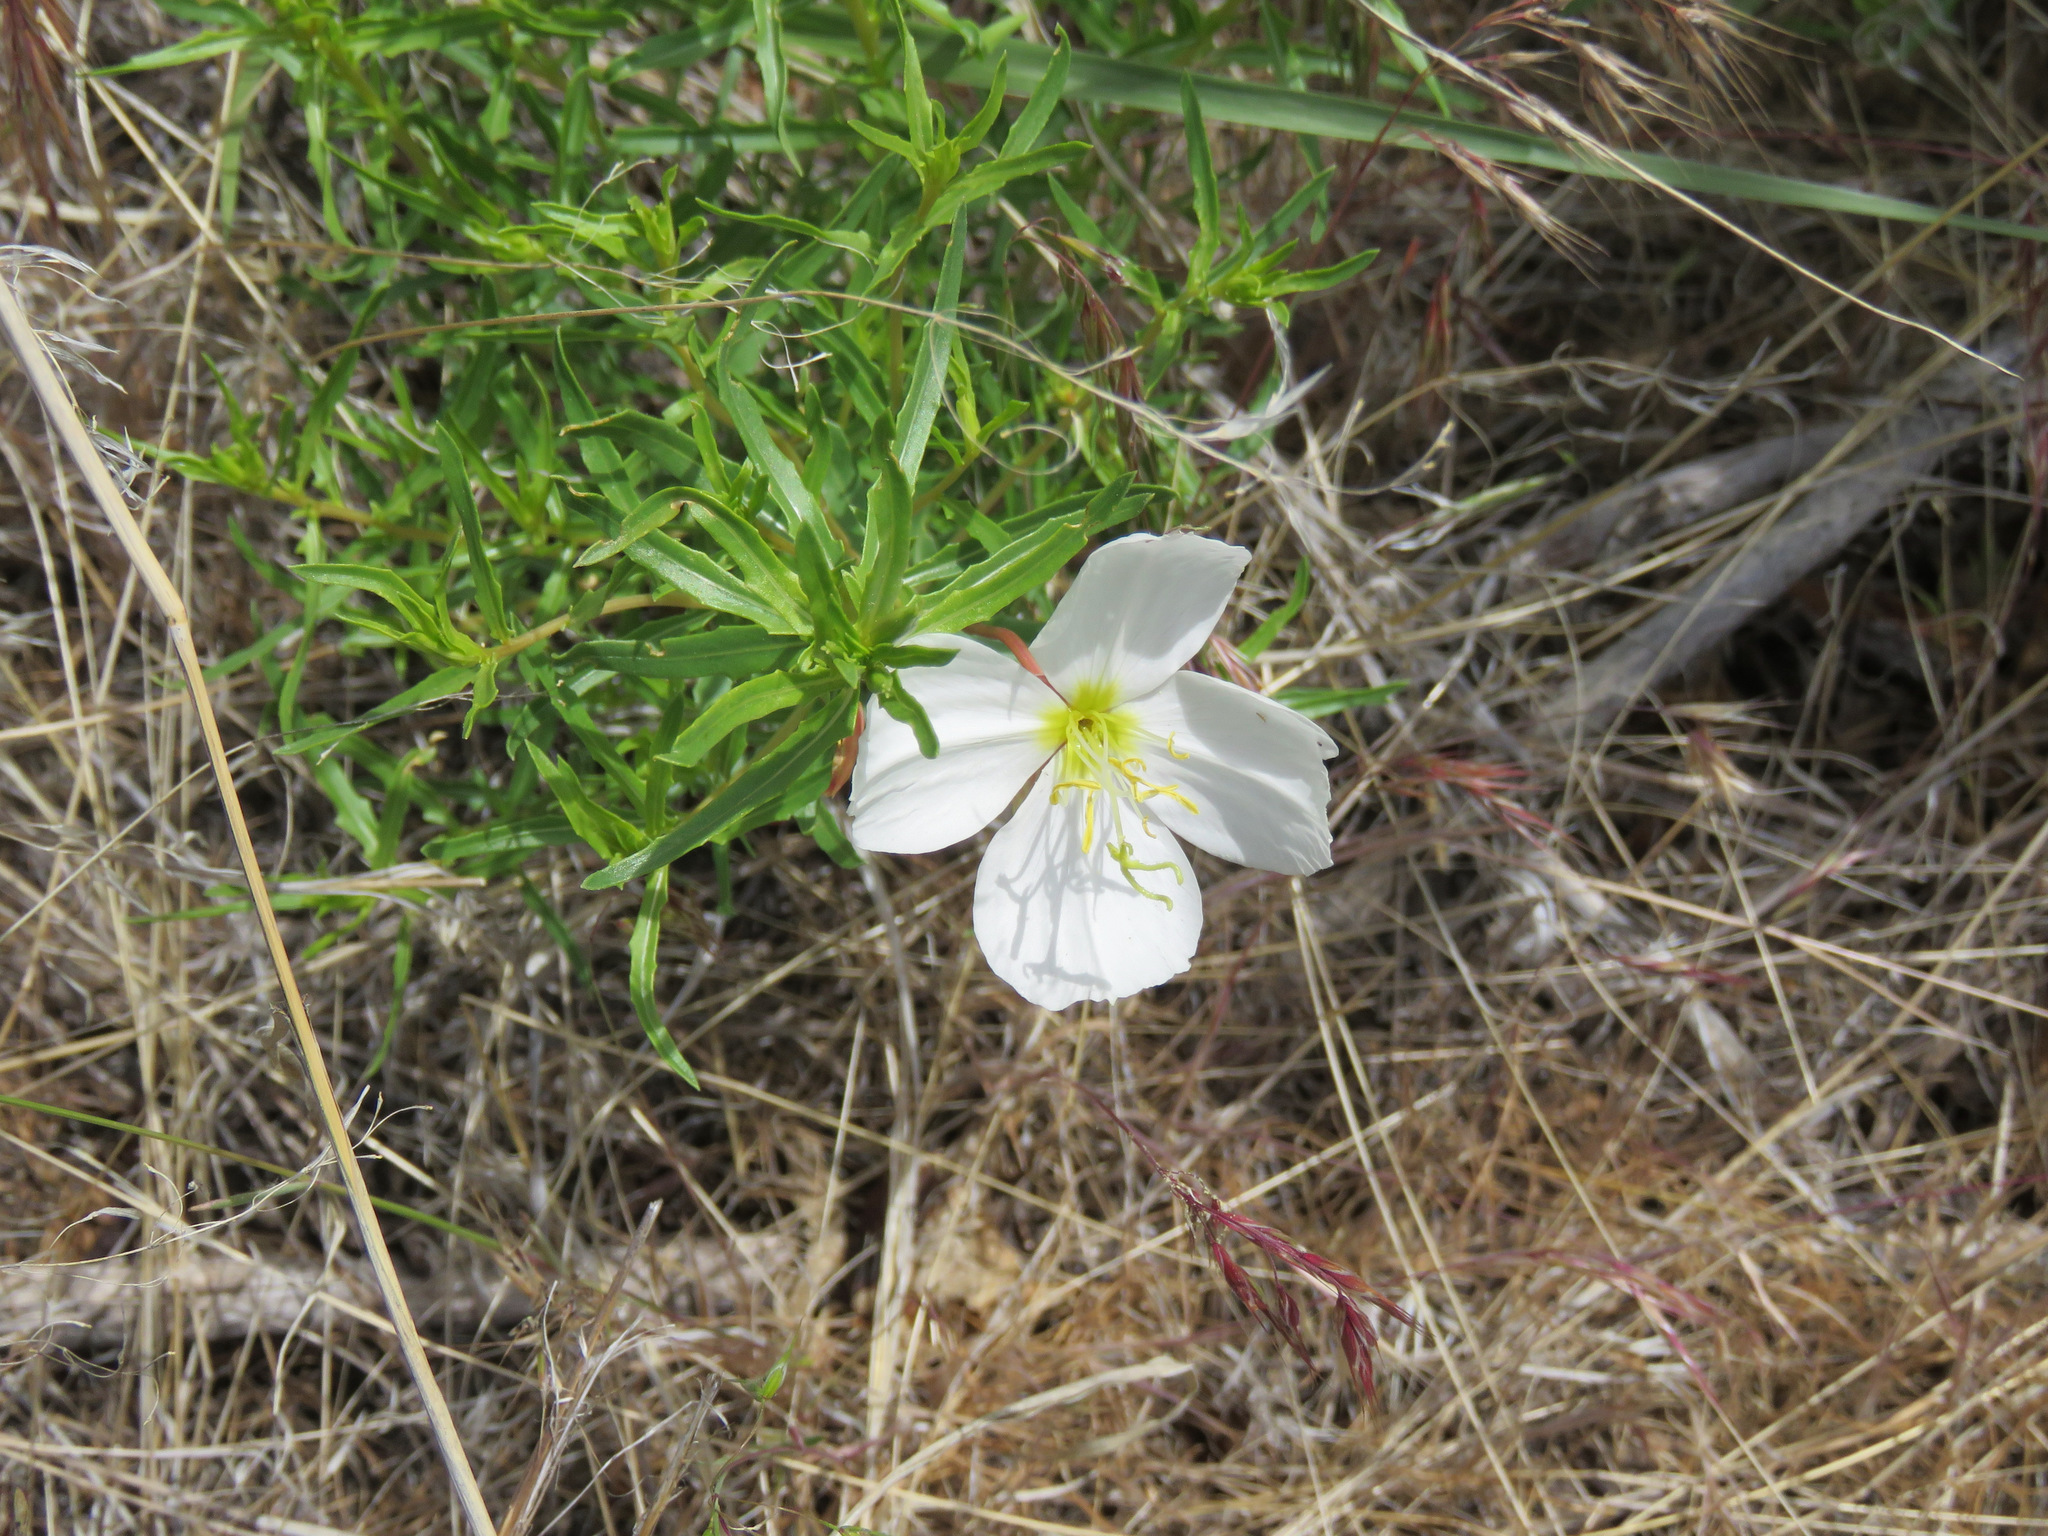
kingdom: Plantae
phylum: Tracheophyta
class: Magnoliopsida
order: Myrtales
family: Onagraceae
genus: Oenothera
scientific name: Oenothera pallida
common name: Pale evening-primrose
